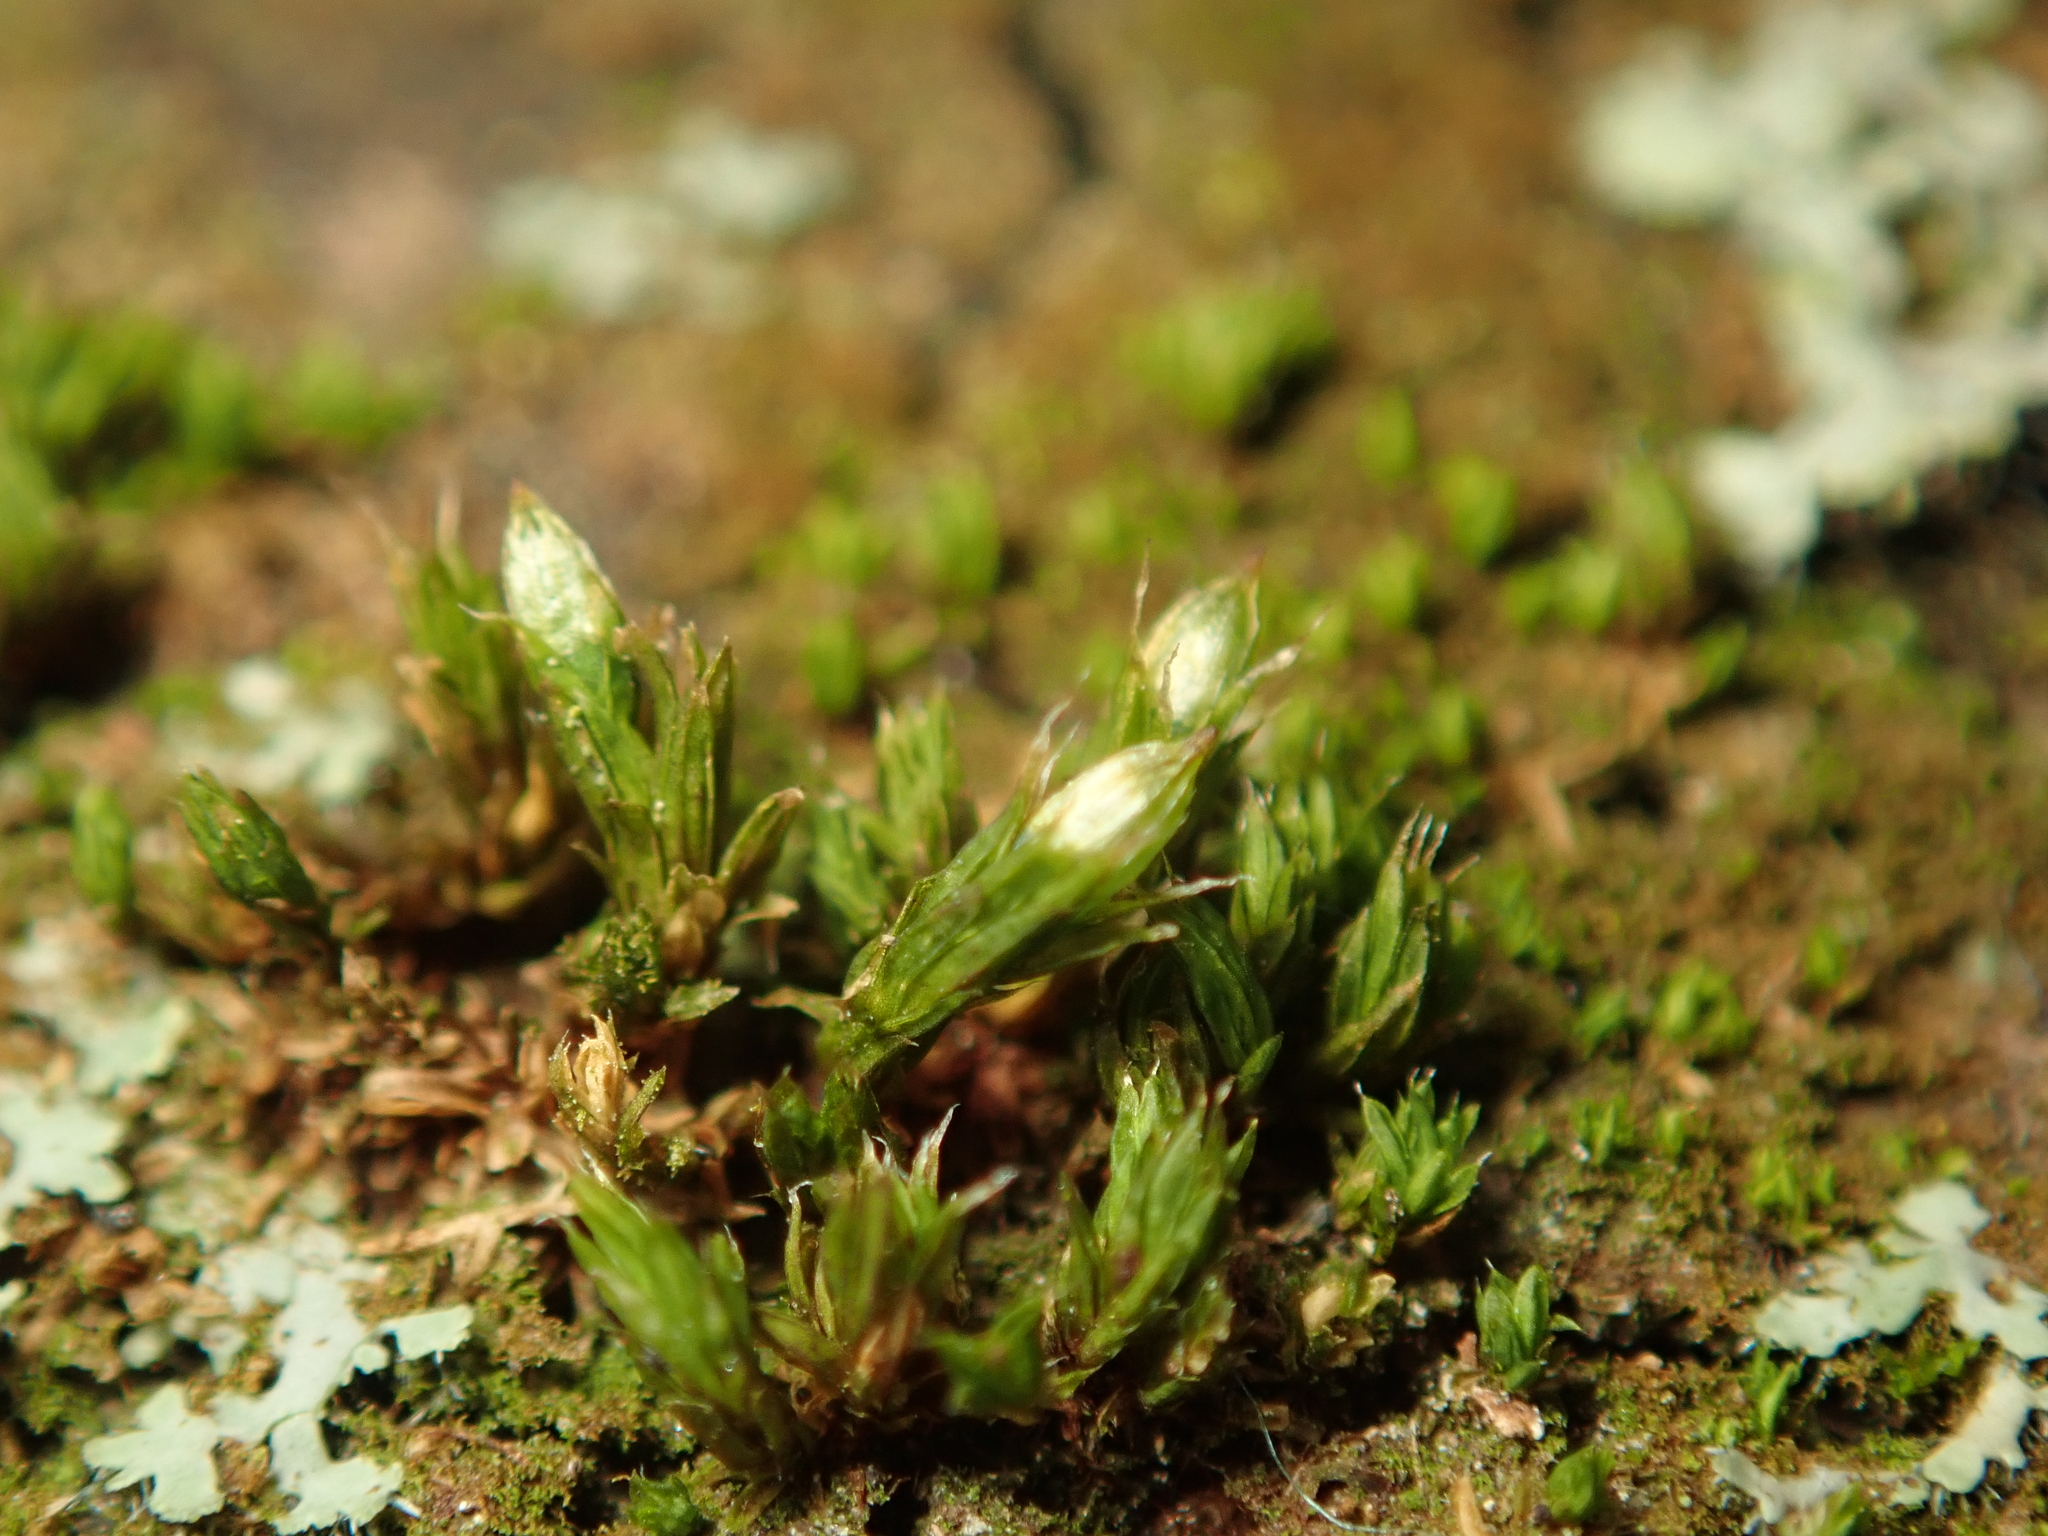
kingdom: Plantae
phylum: Bryophyta
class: Bryopsida
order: Orthotrichales
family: Orthotrichaceae
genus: Orthotrichum
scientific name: Orthotrichum diaphanum
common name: White-tipped bristle-moss
